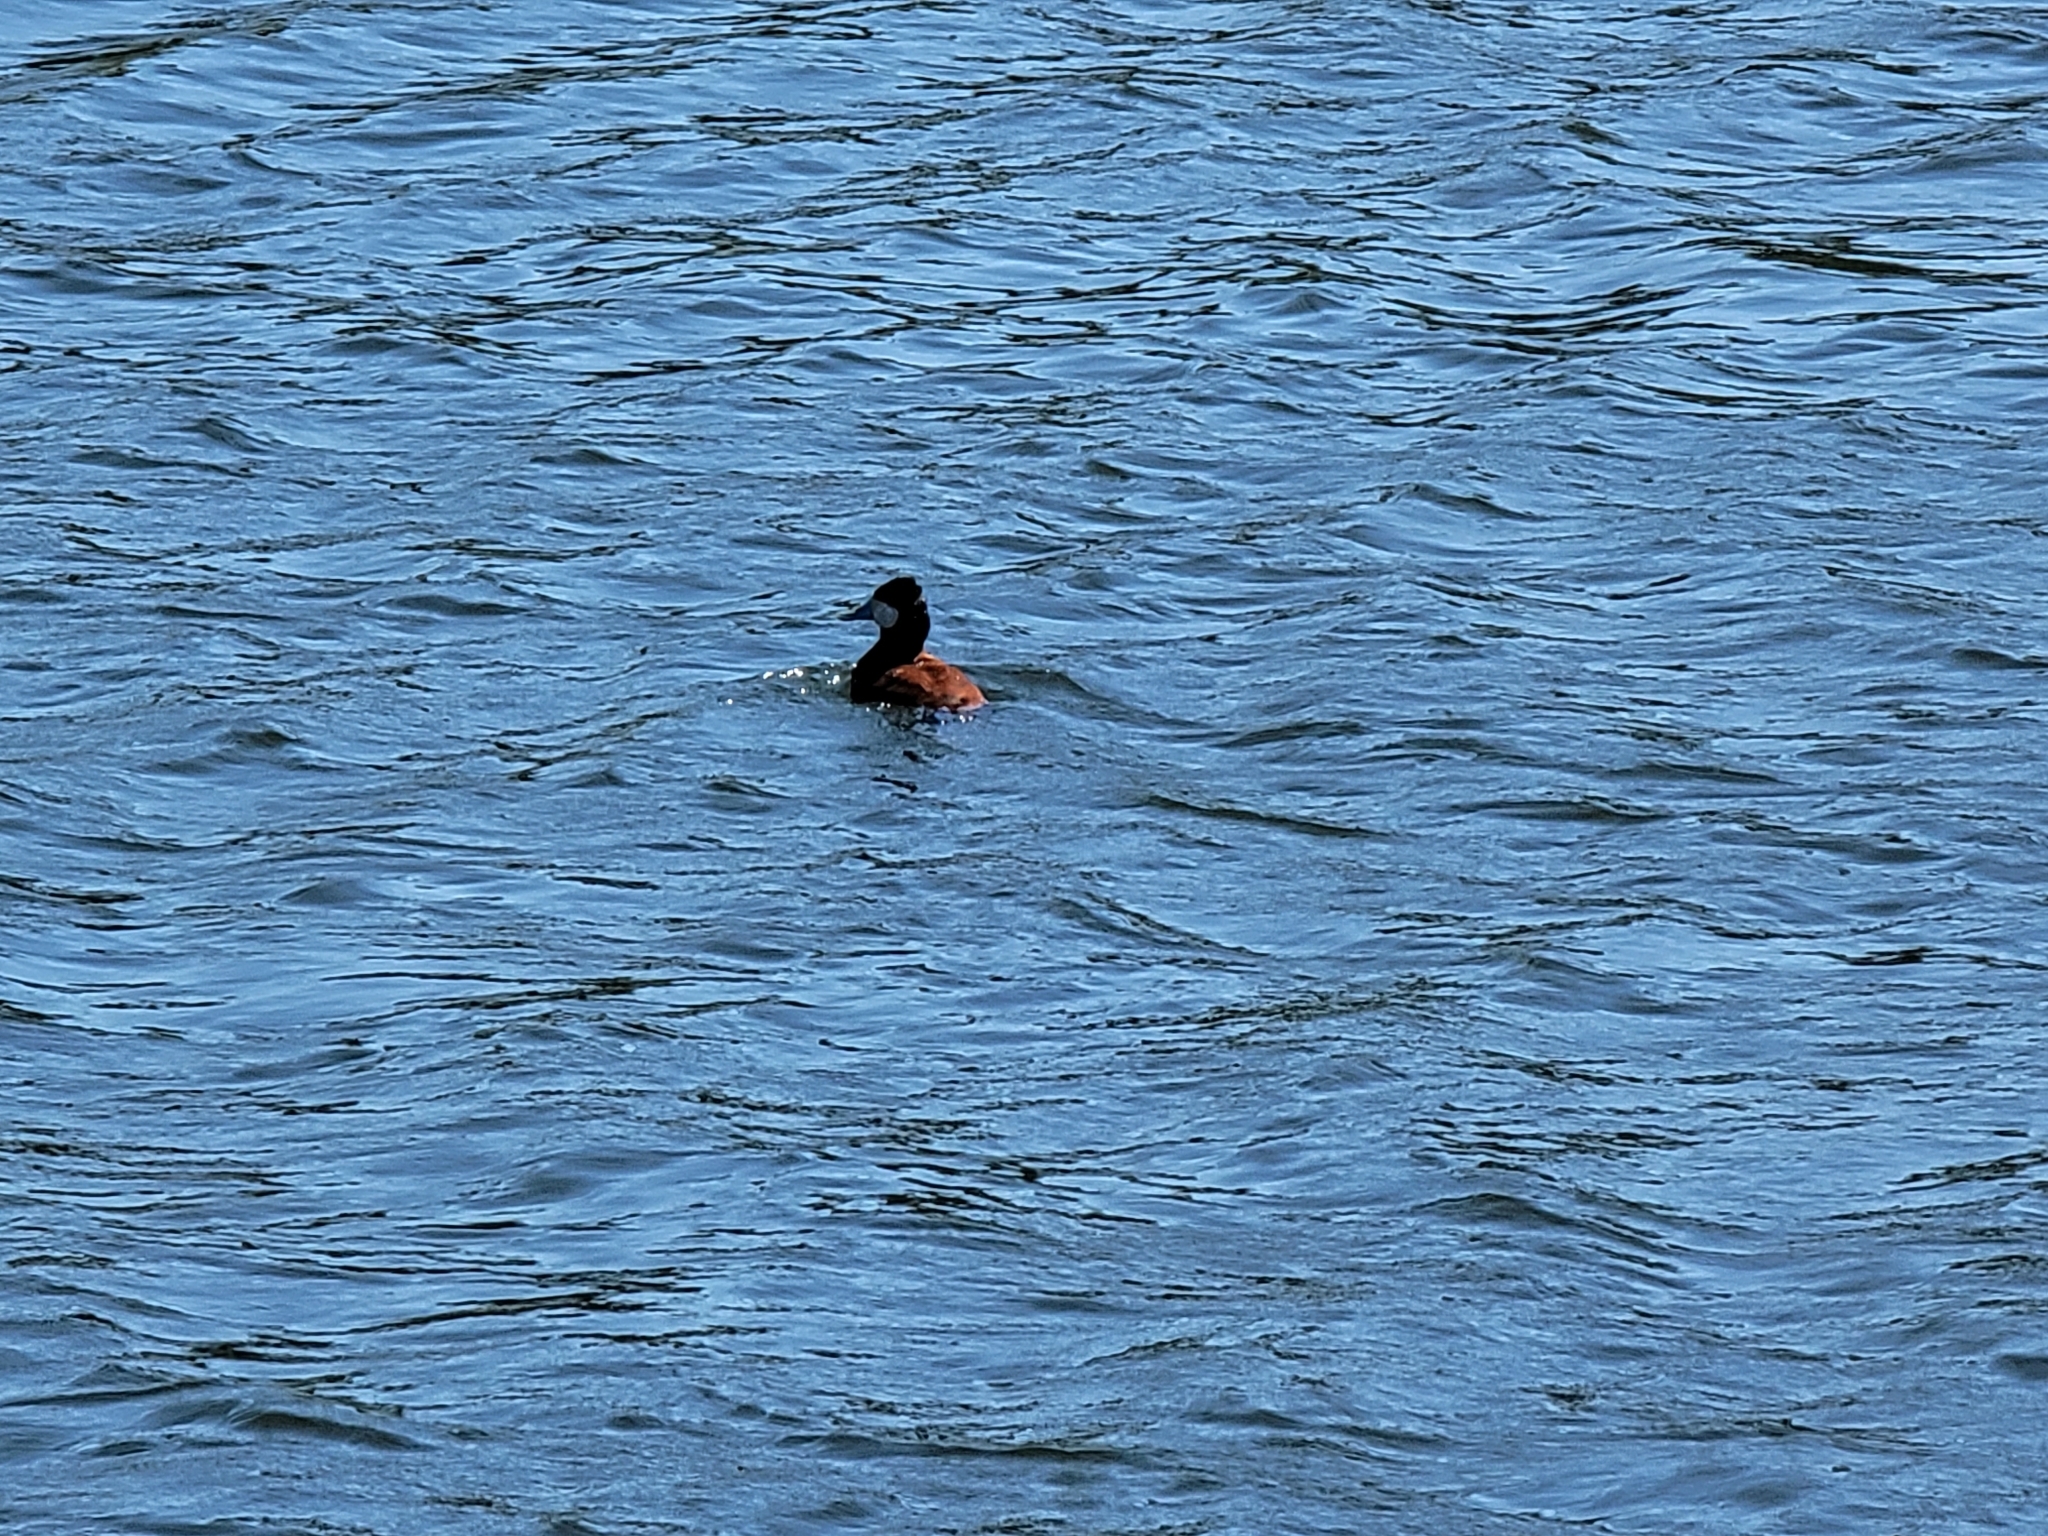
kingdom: Animalia
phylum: Chordata
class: Aves
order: Anseriformes
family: Anatidae
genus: Oxyura
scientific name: Oxyura jamaicensis
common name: Ruddy duck
